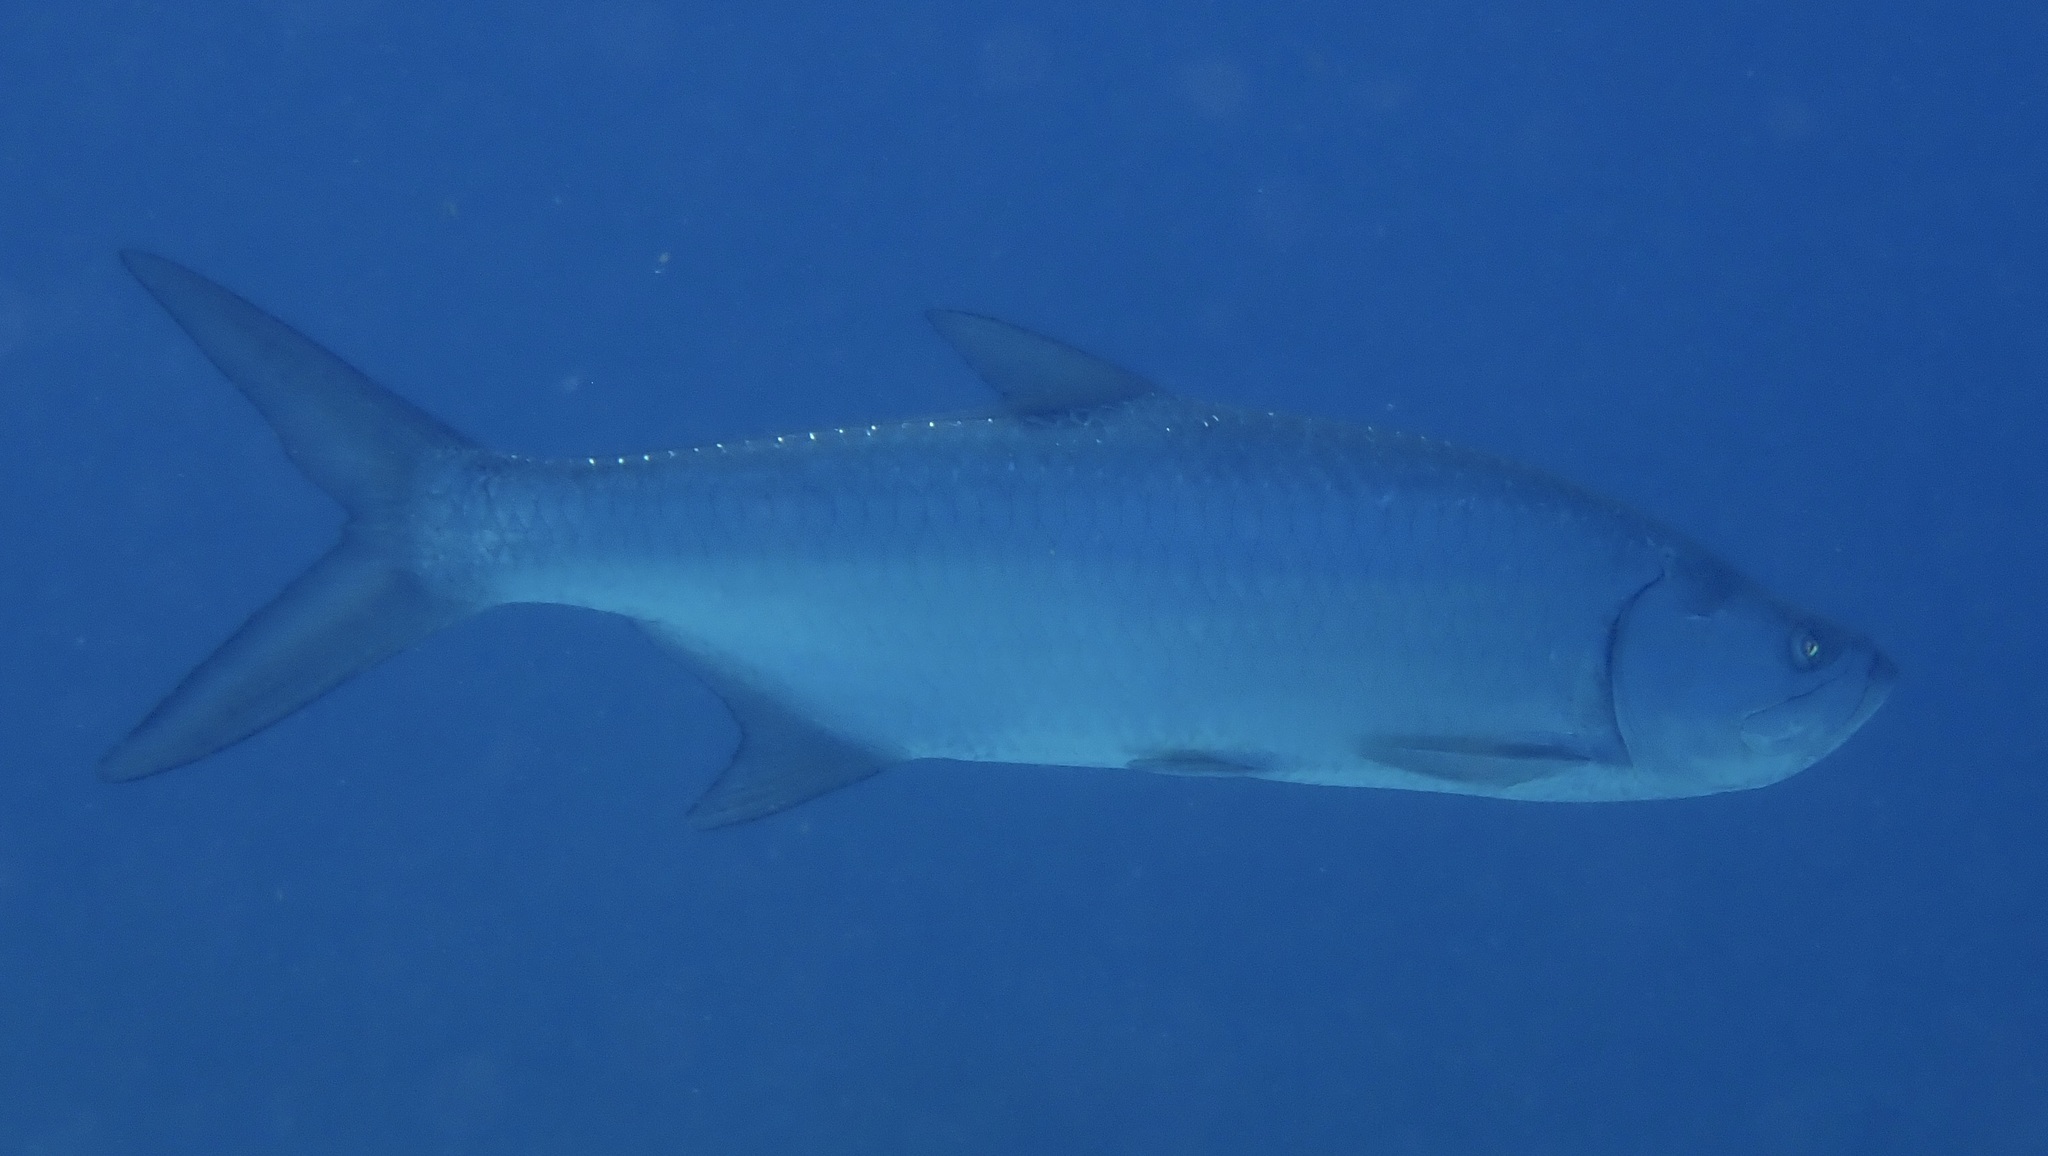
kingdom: Animalia
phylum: Chordata
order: Elopiformes
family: Megalopidae
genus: Megalops
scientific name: Megalops atlanticus
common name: Tarpon
